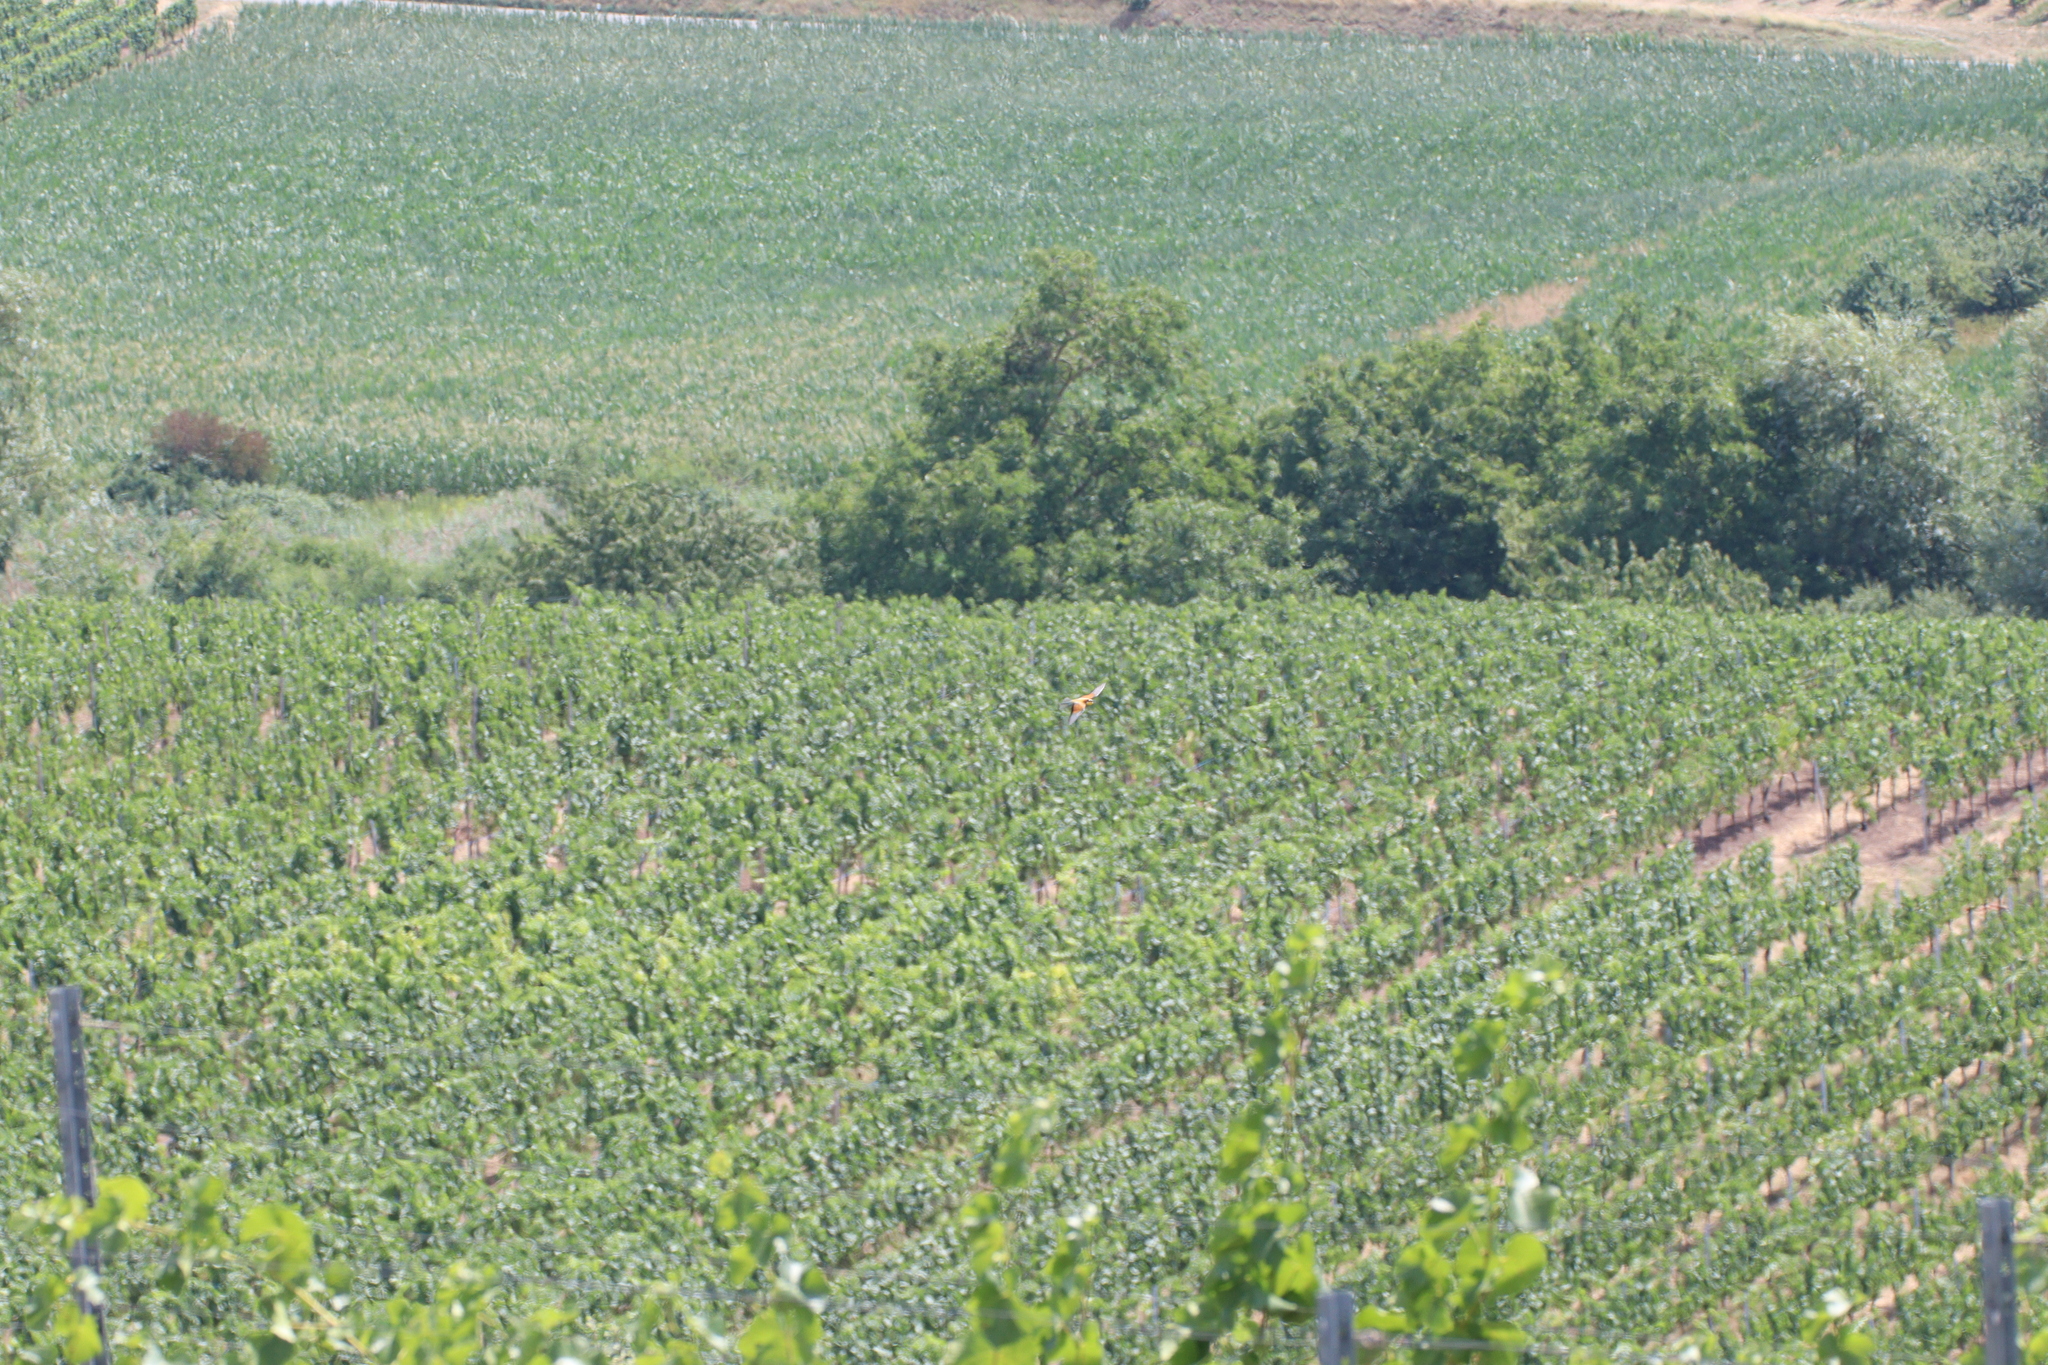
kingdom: Animalia
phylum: Chordata
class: Aves
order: Coraciiformes
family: Meropidae
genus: Merops
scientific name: Merops apiaster
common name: European bee-eater
